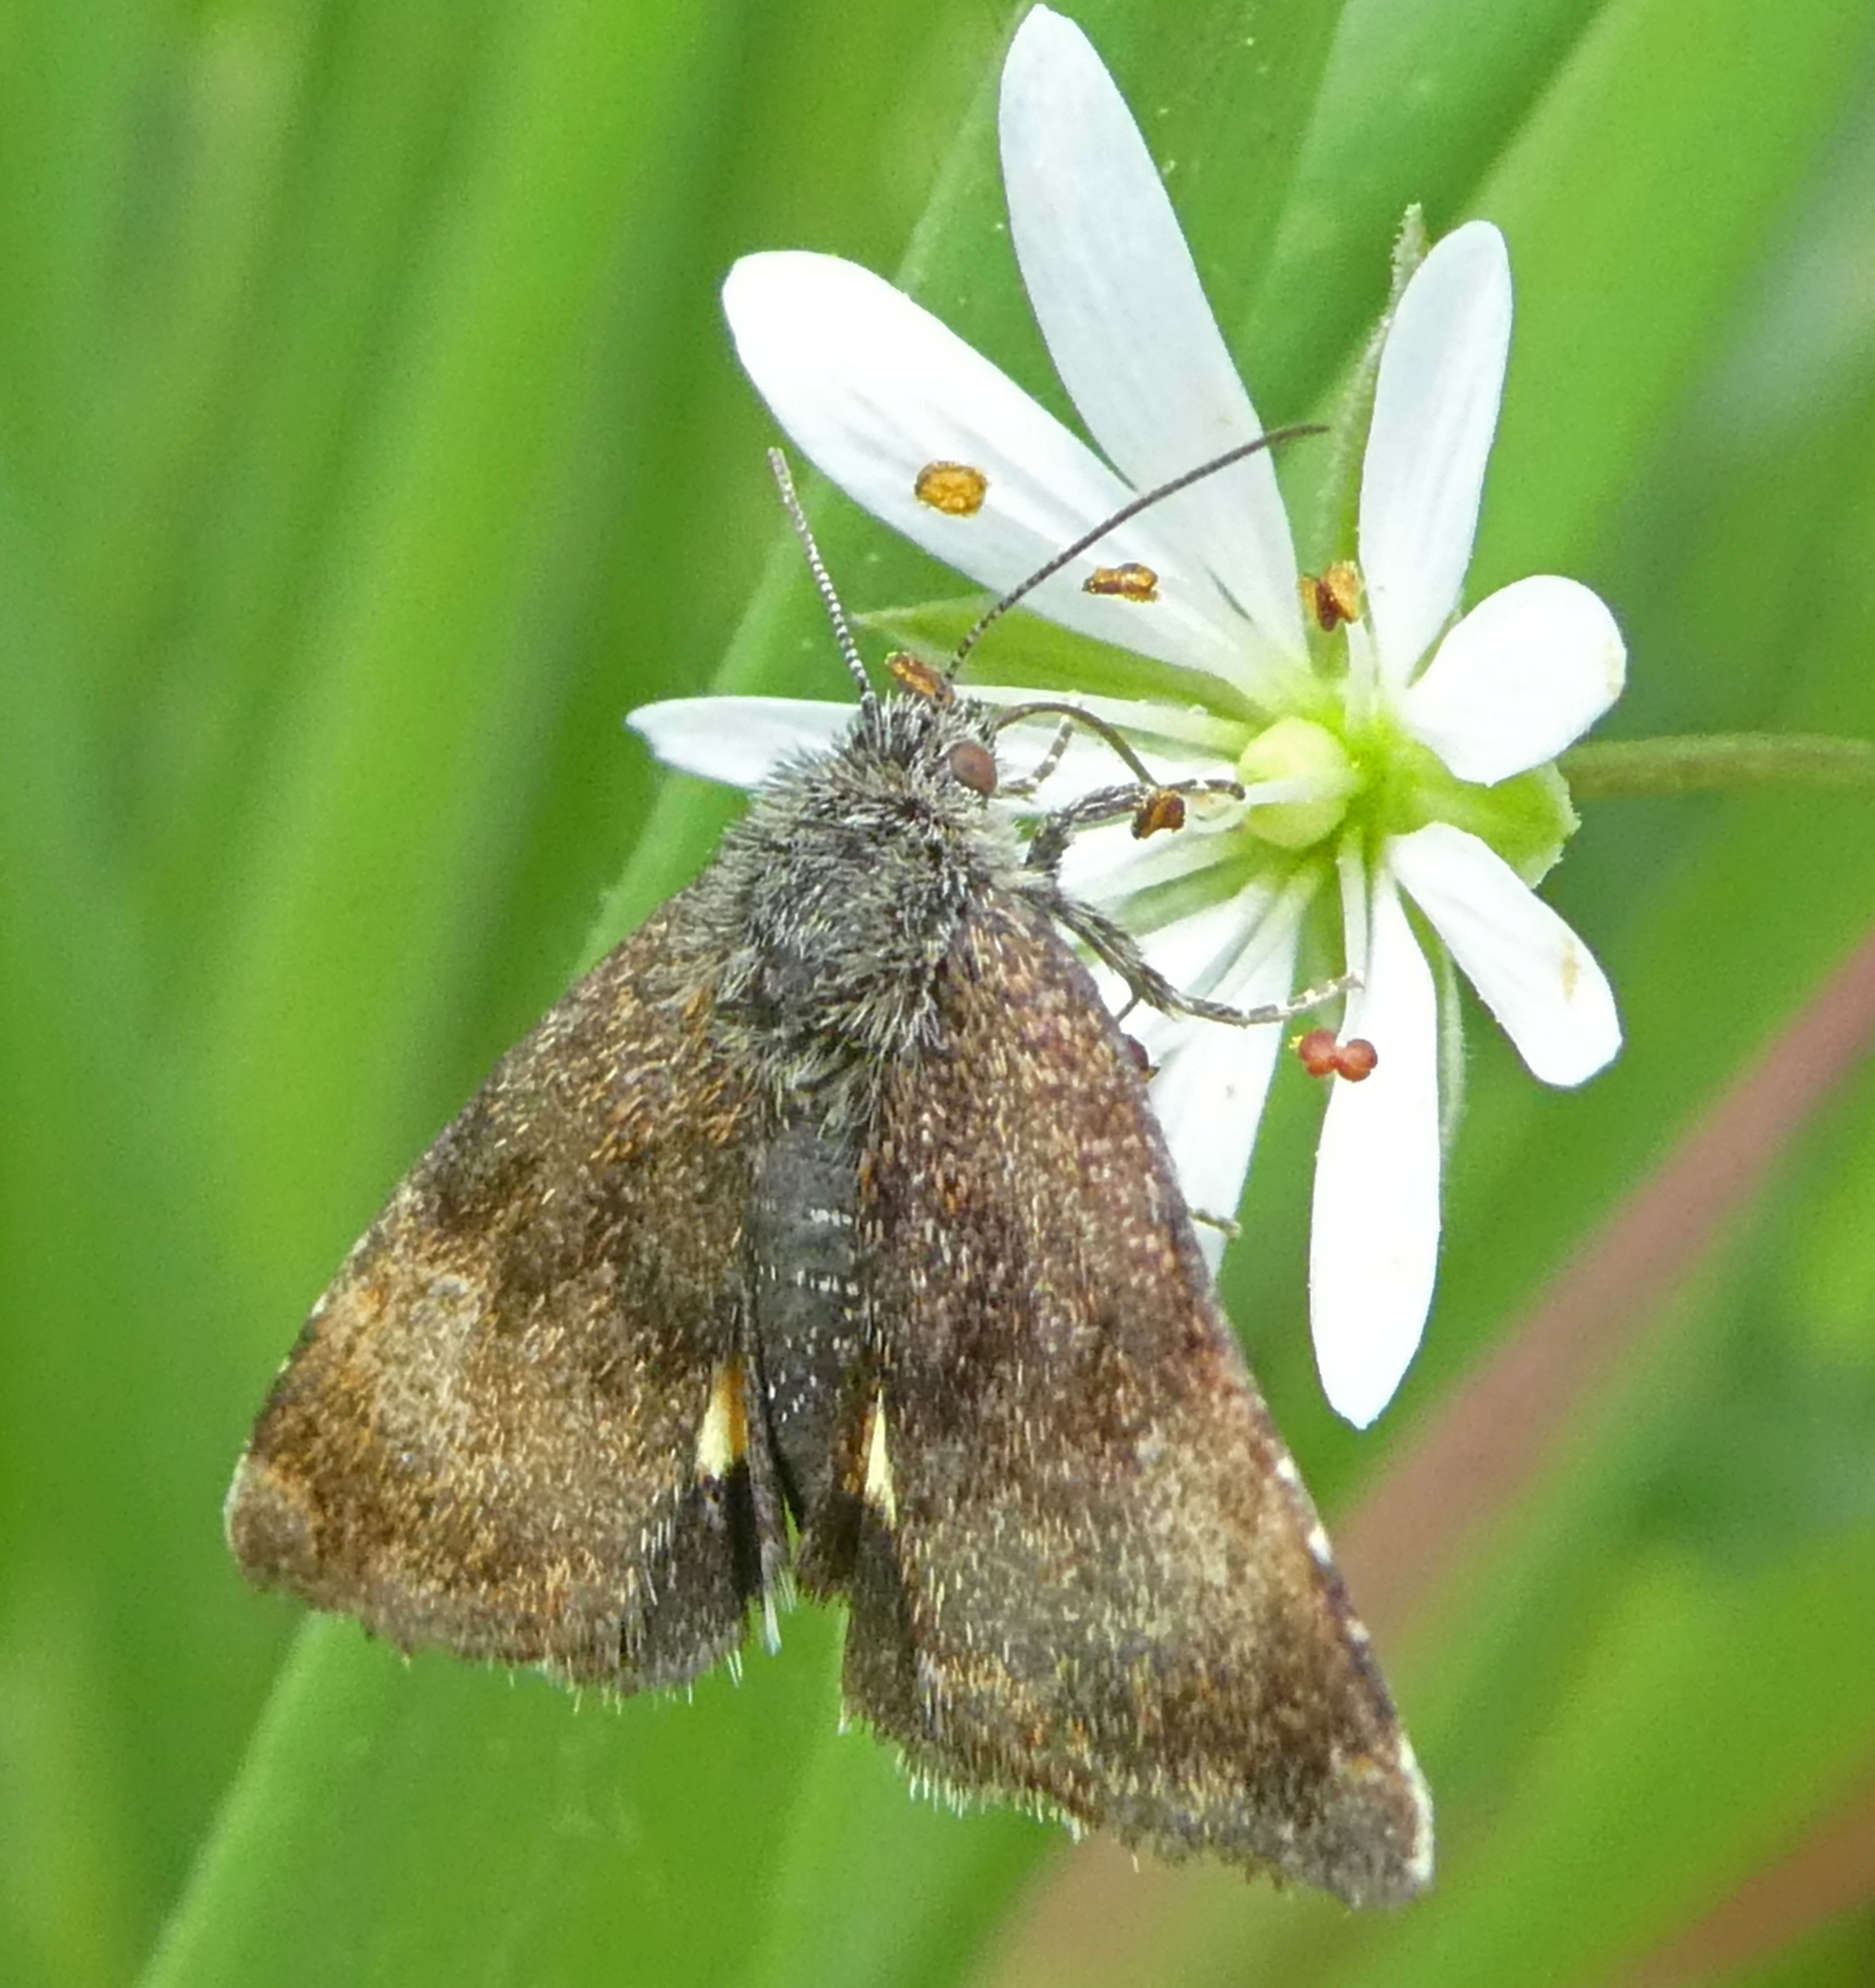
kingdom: Animalia
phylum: Arthropoda
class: Insecta
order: Lepidoptera
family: Noctuidae
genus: Panemeria
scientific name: Panemeria tenebrata
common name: Small yellow underwing
